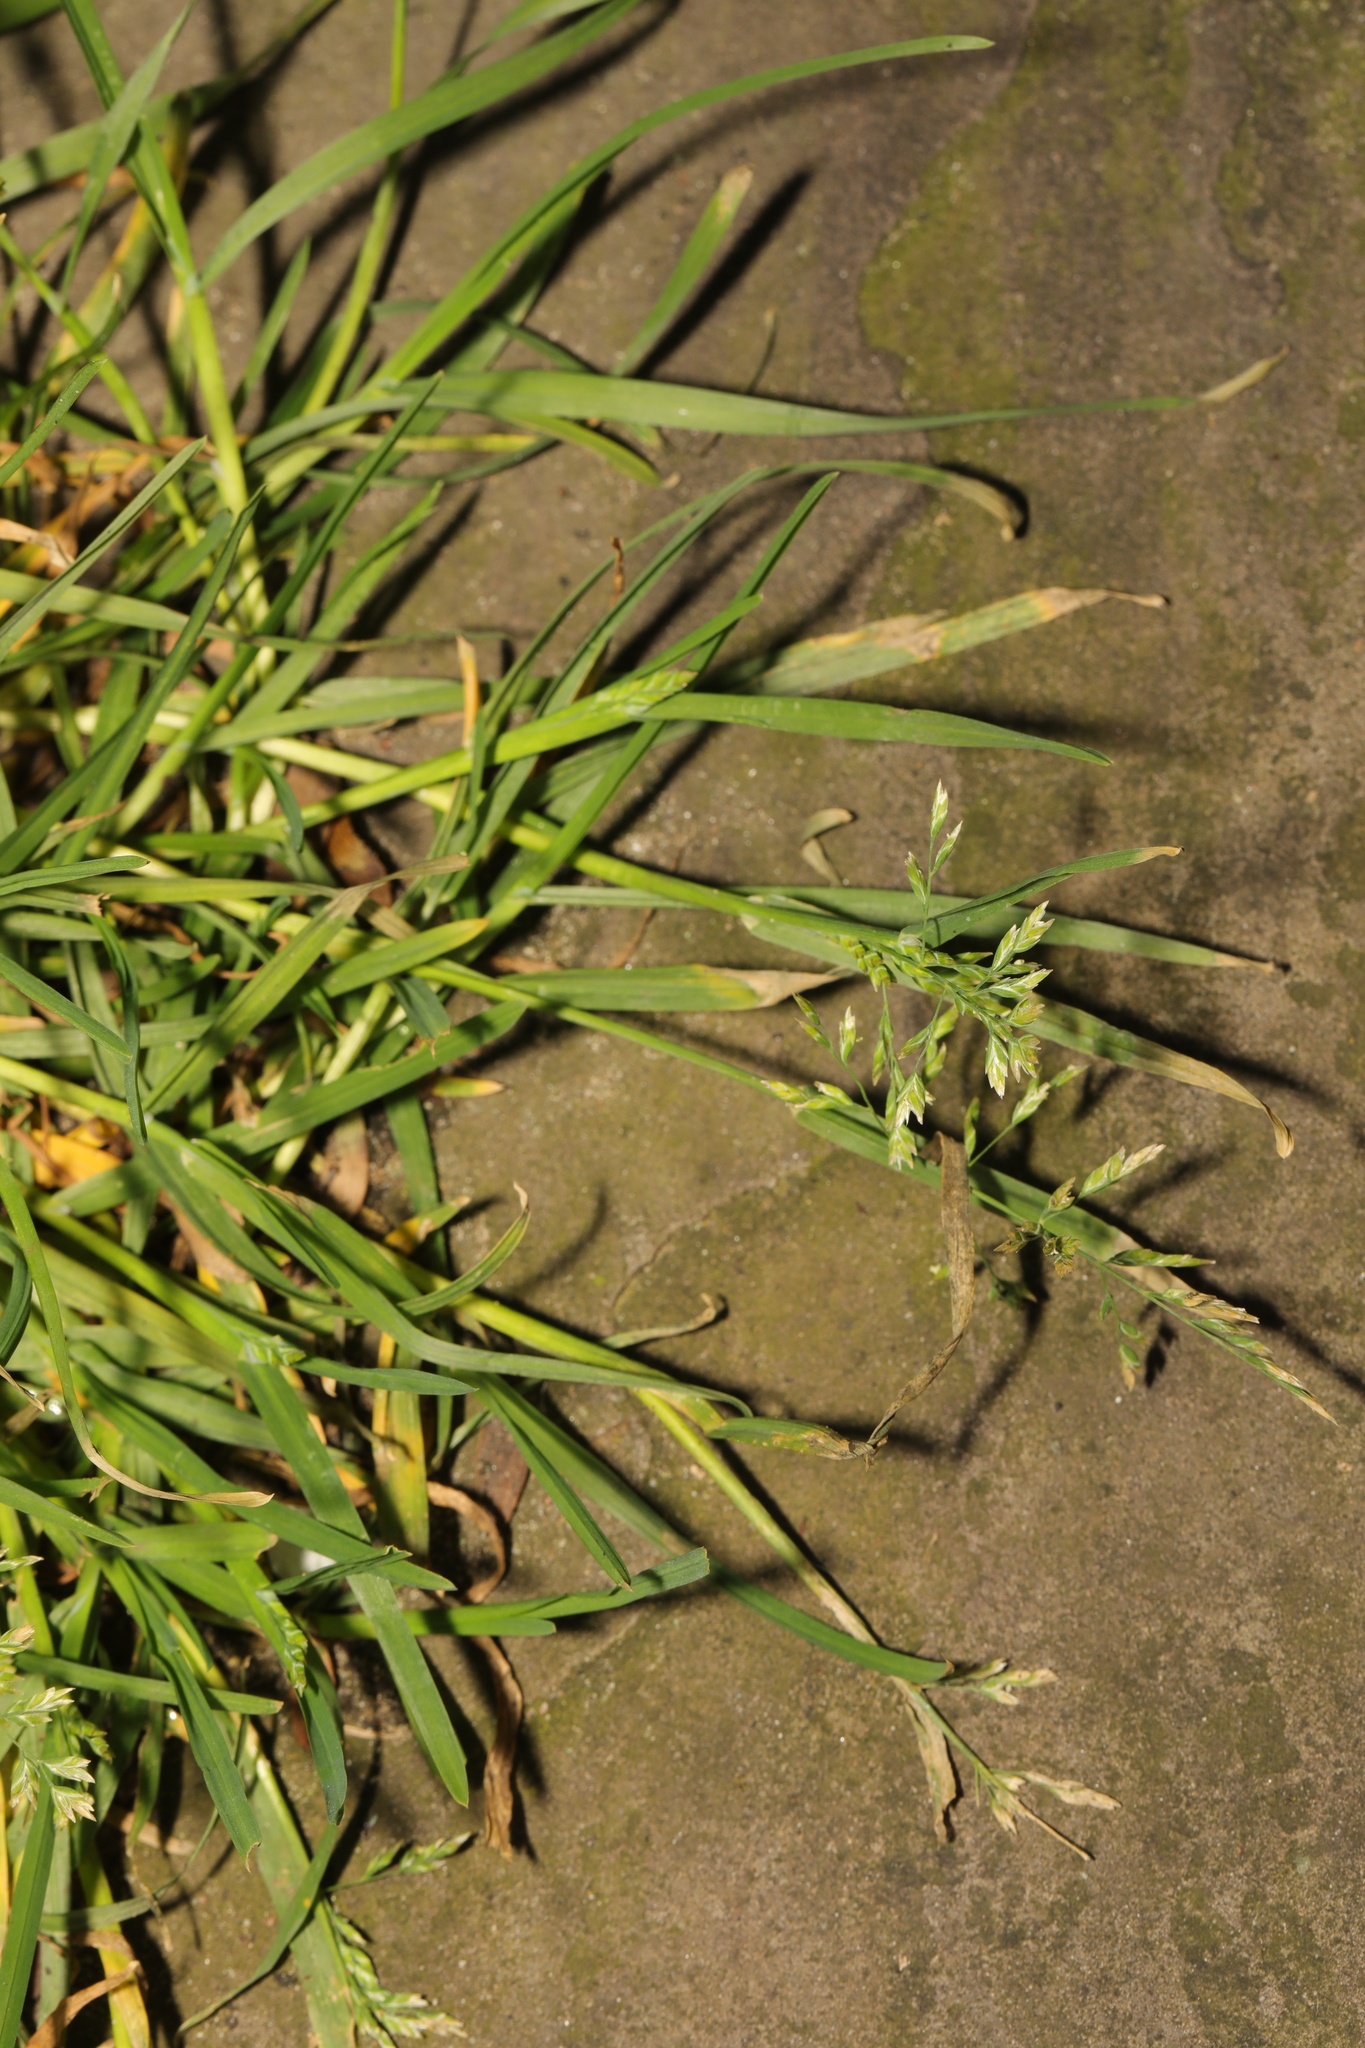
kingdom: Plantae
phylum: Tracheophyta
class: Liliopsida
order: Poales
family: Poaceae
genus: Poa
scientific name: Poa annua
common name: Annual bluegrass
